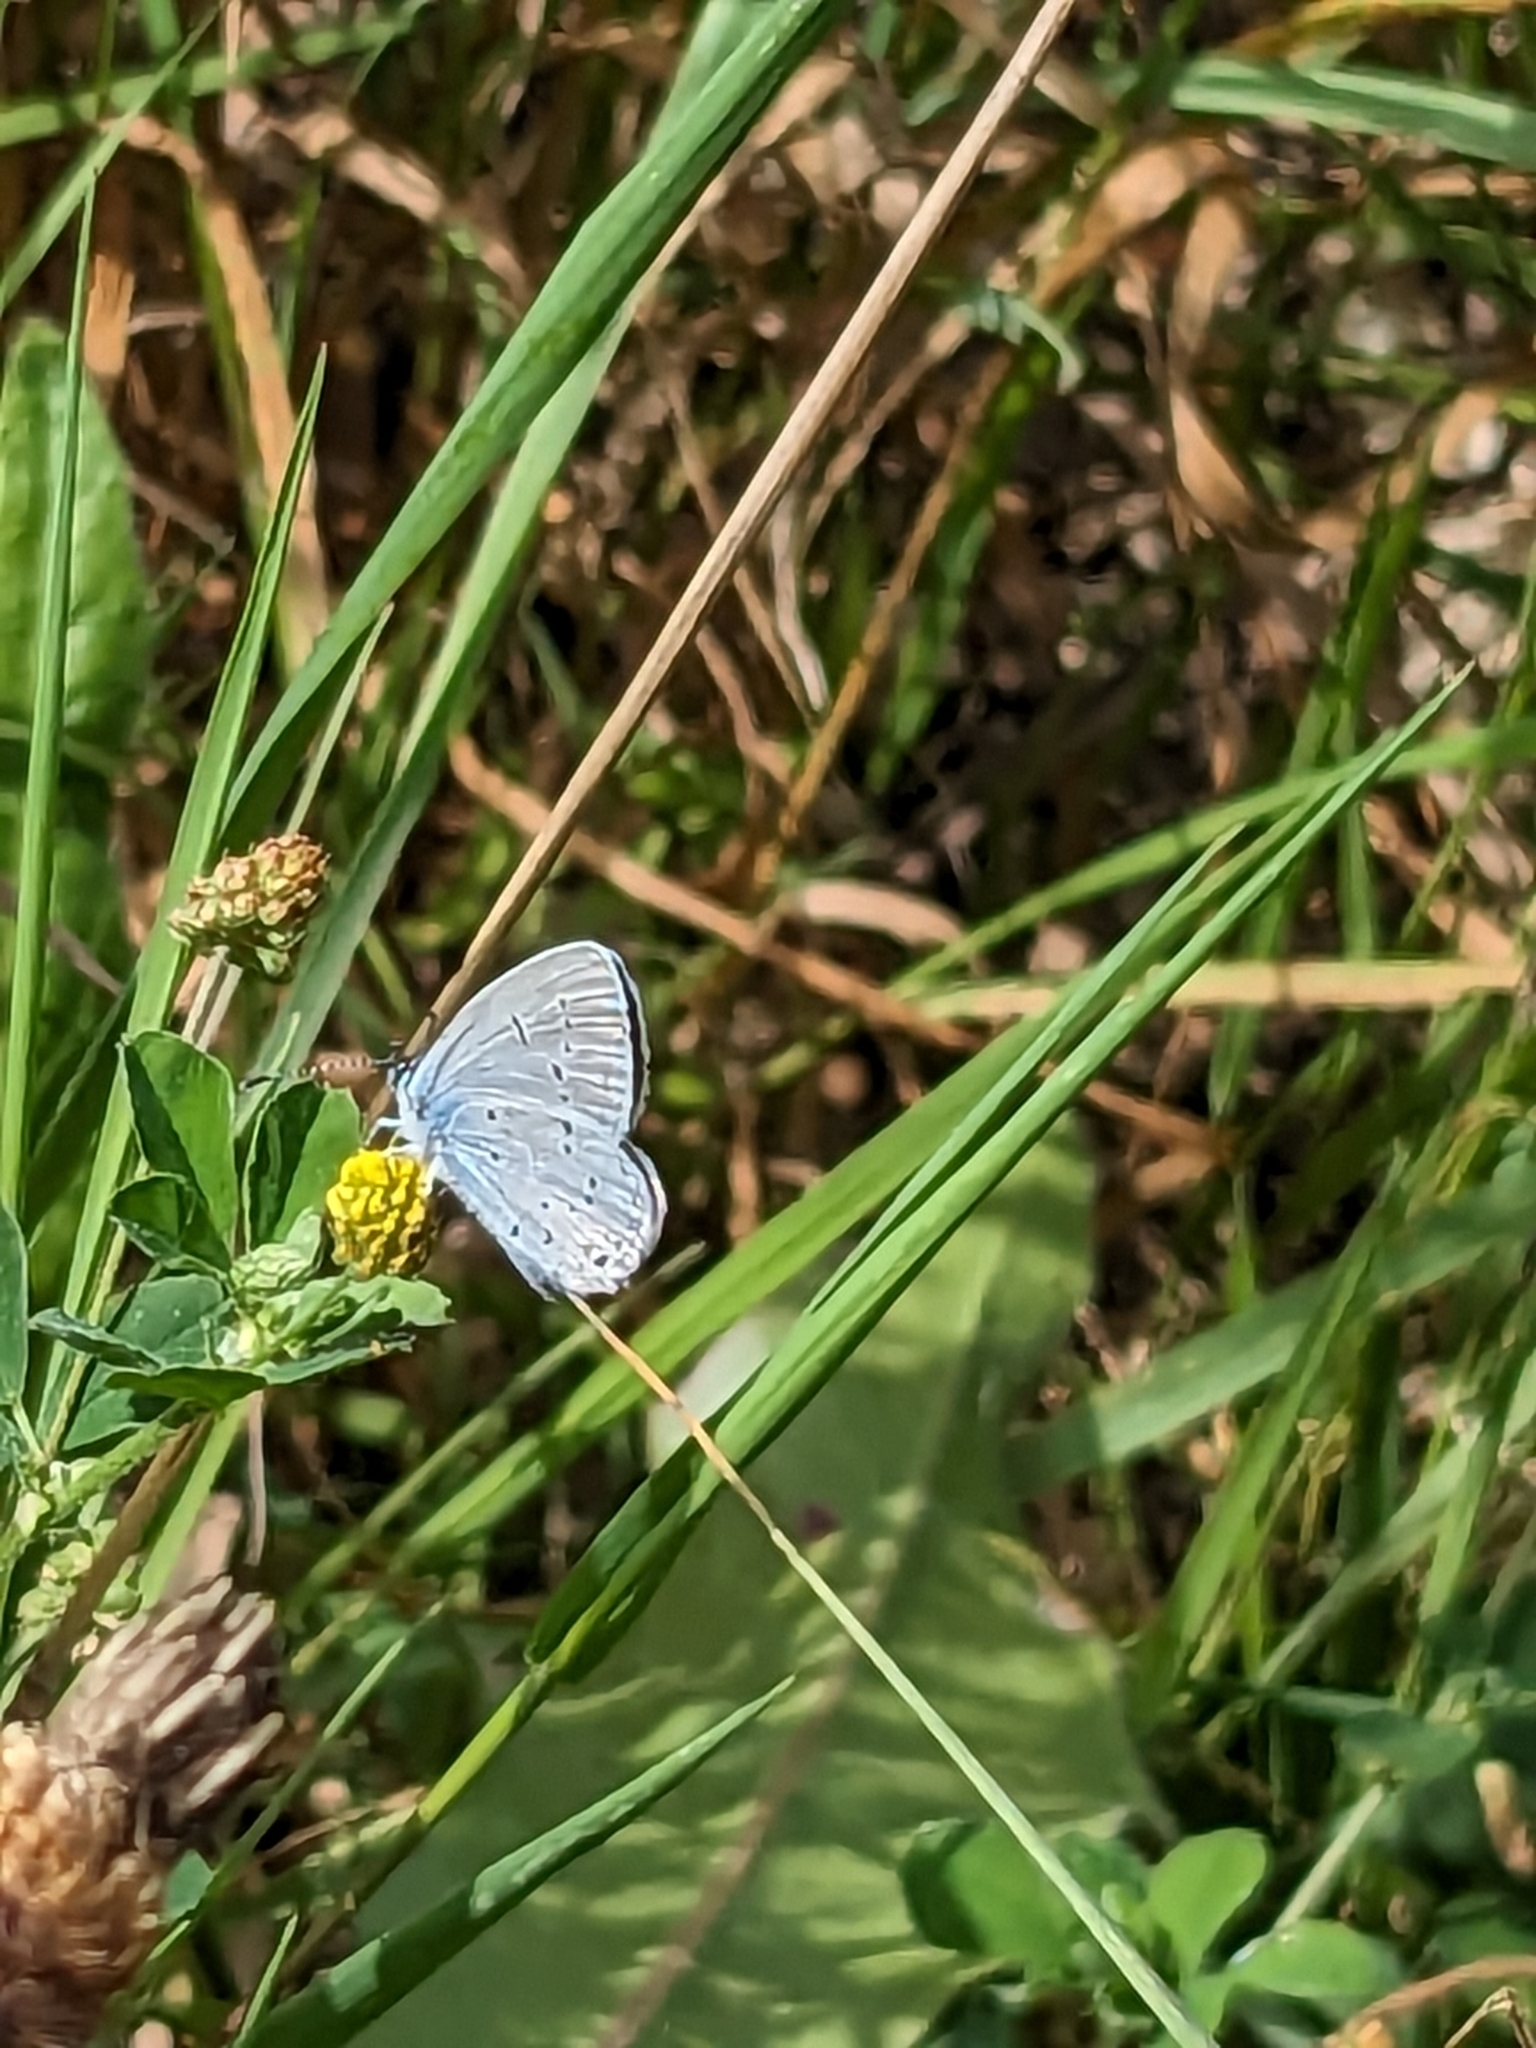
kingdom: Animalia
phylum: Arthropoda
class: Insecta
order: Lepidoptera
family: Lycaenidae
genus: Elkalyce
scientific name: Elkalyce alcetas
